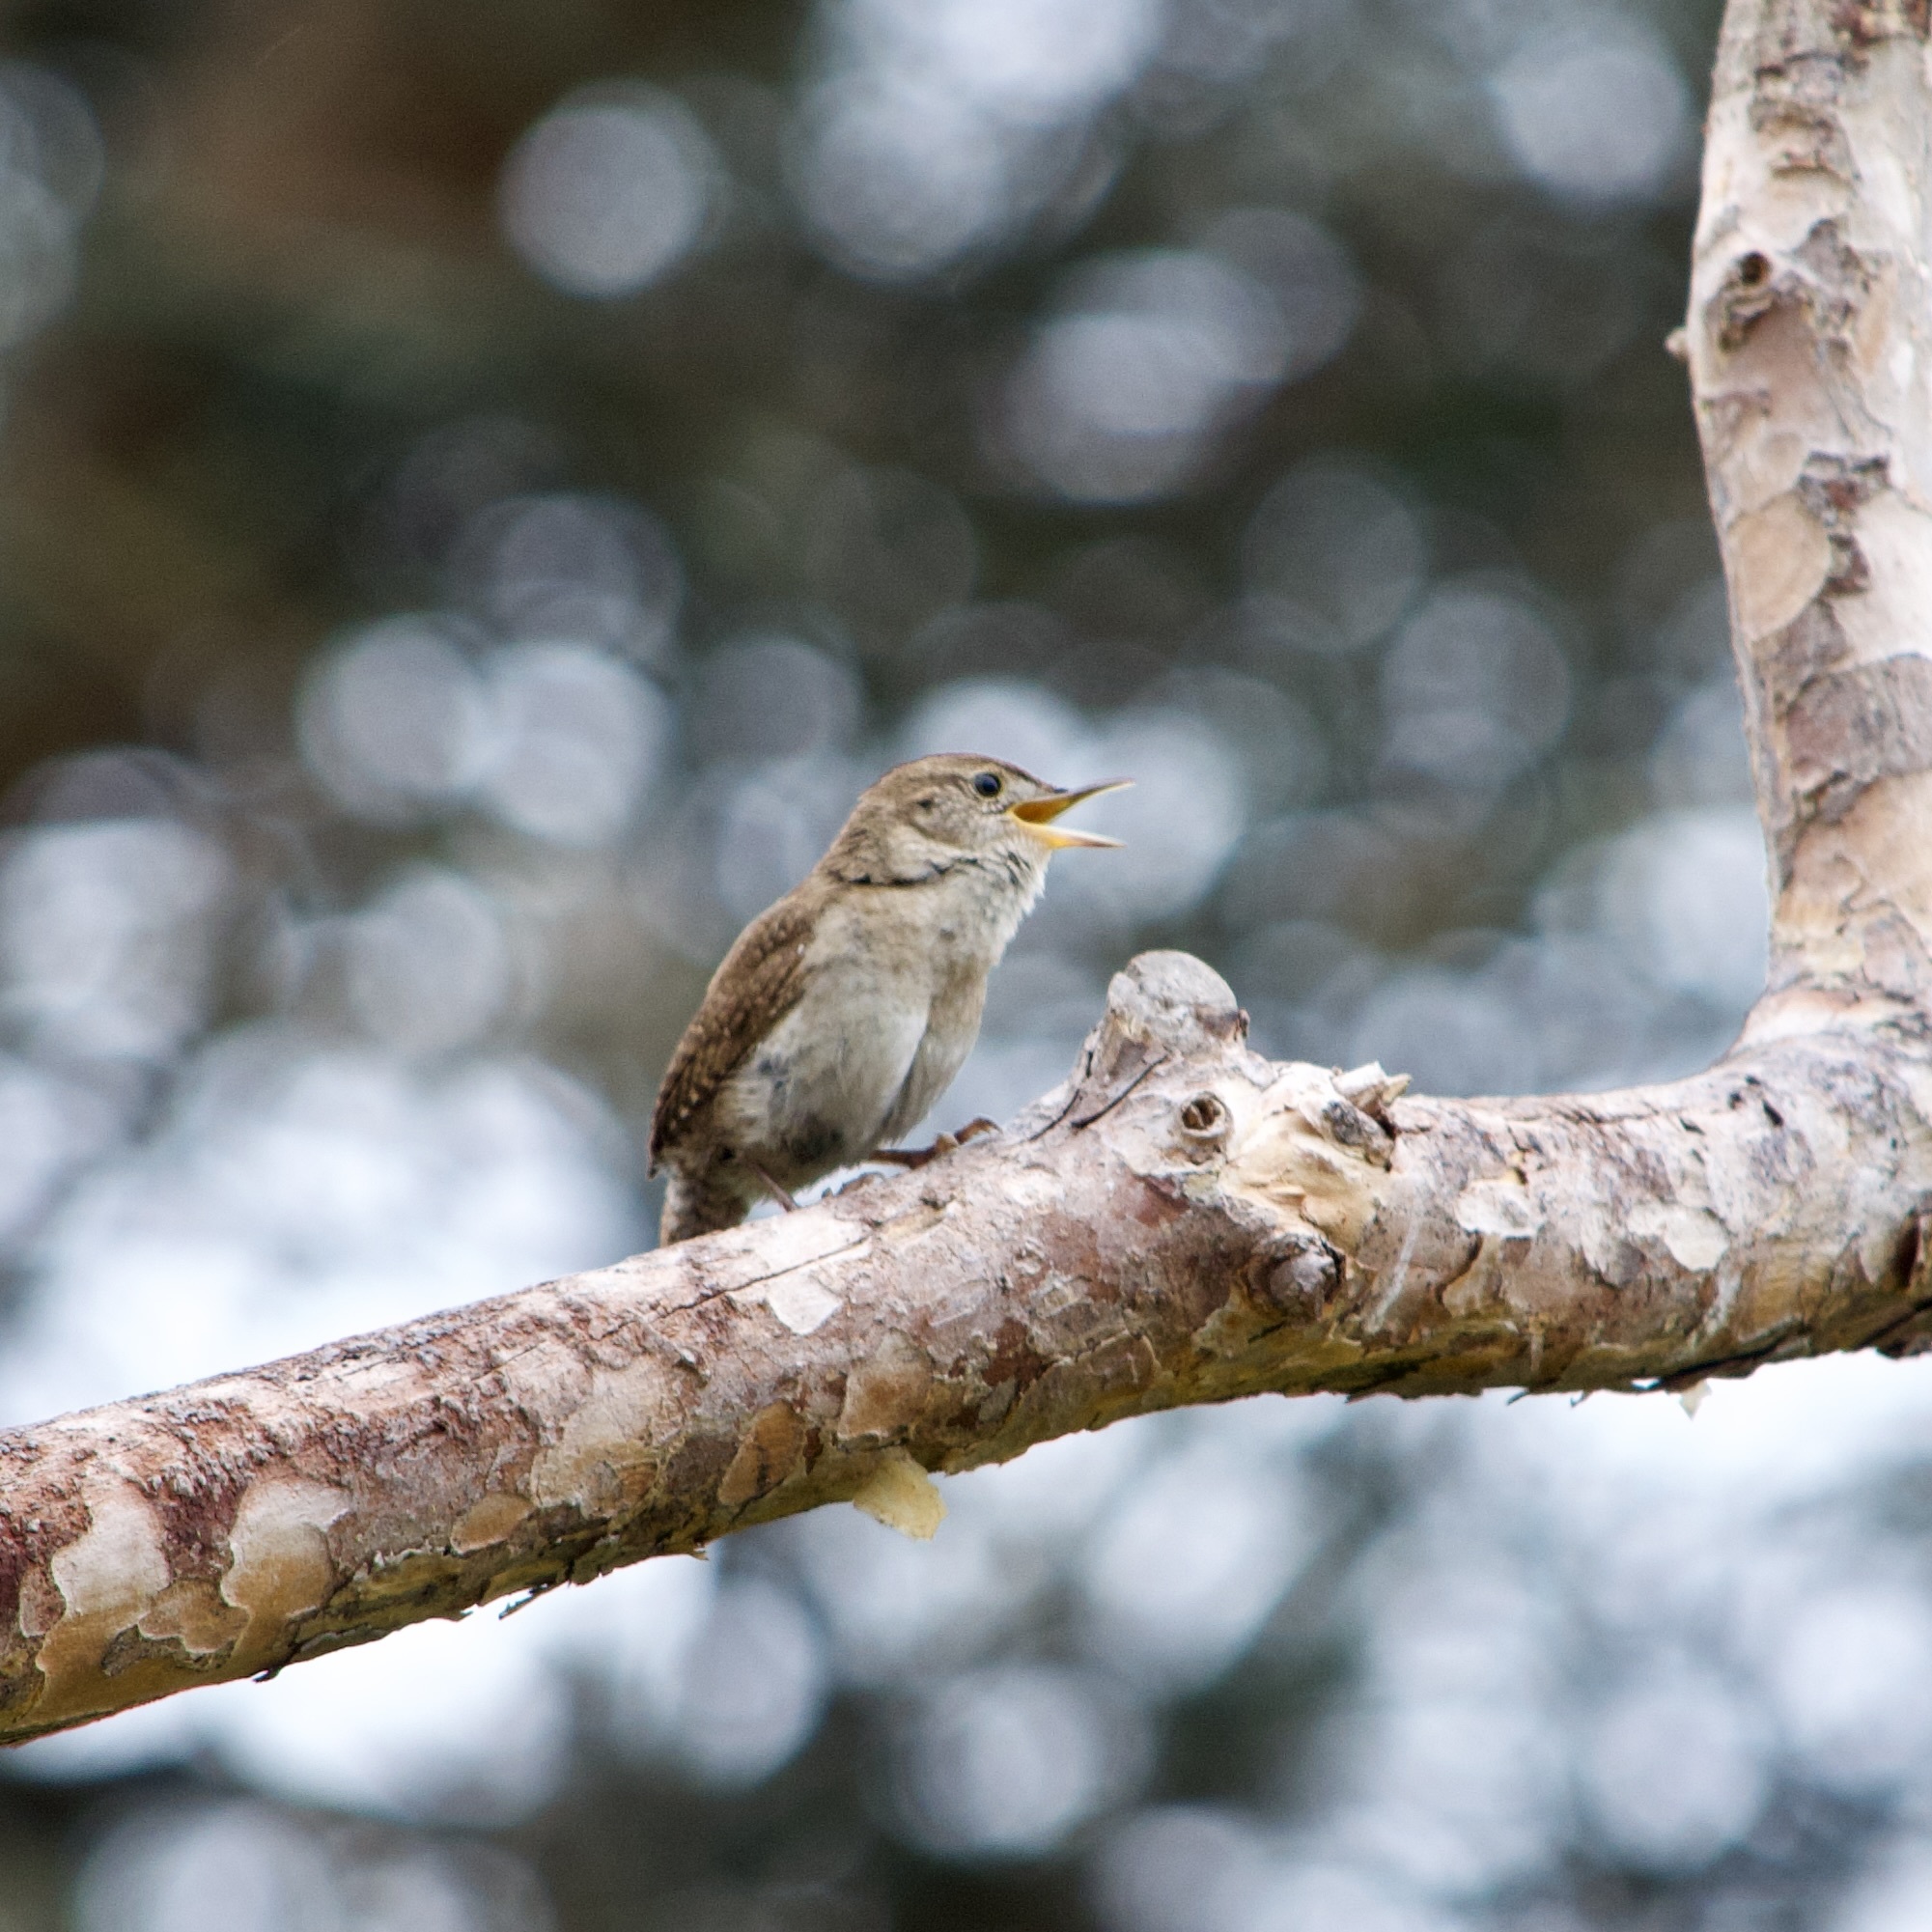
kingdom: Animalia
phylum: Chordata
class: Aves
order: Passeriformes
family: Troglodytidae
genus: Troglodytes
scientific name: Troglodytes aedon
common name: House wren
